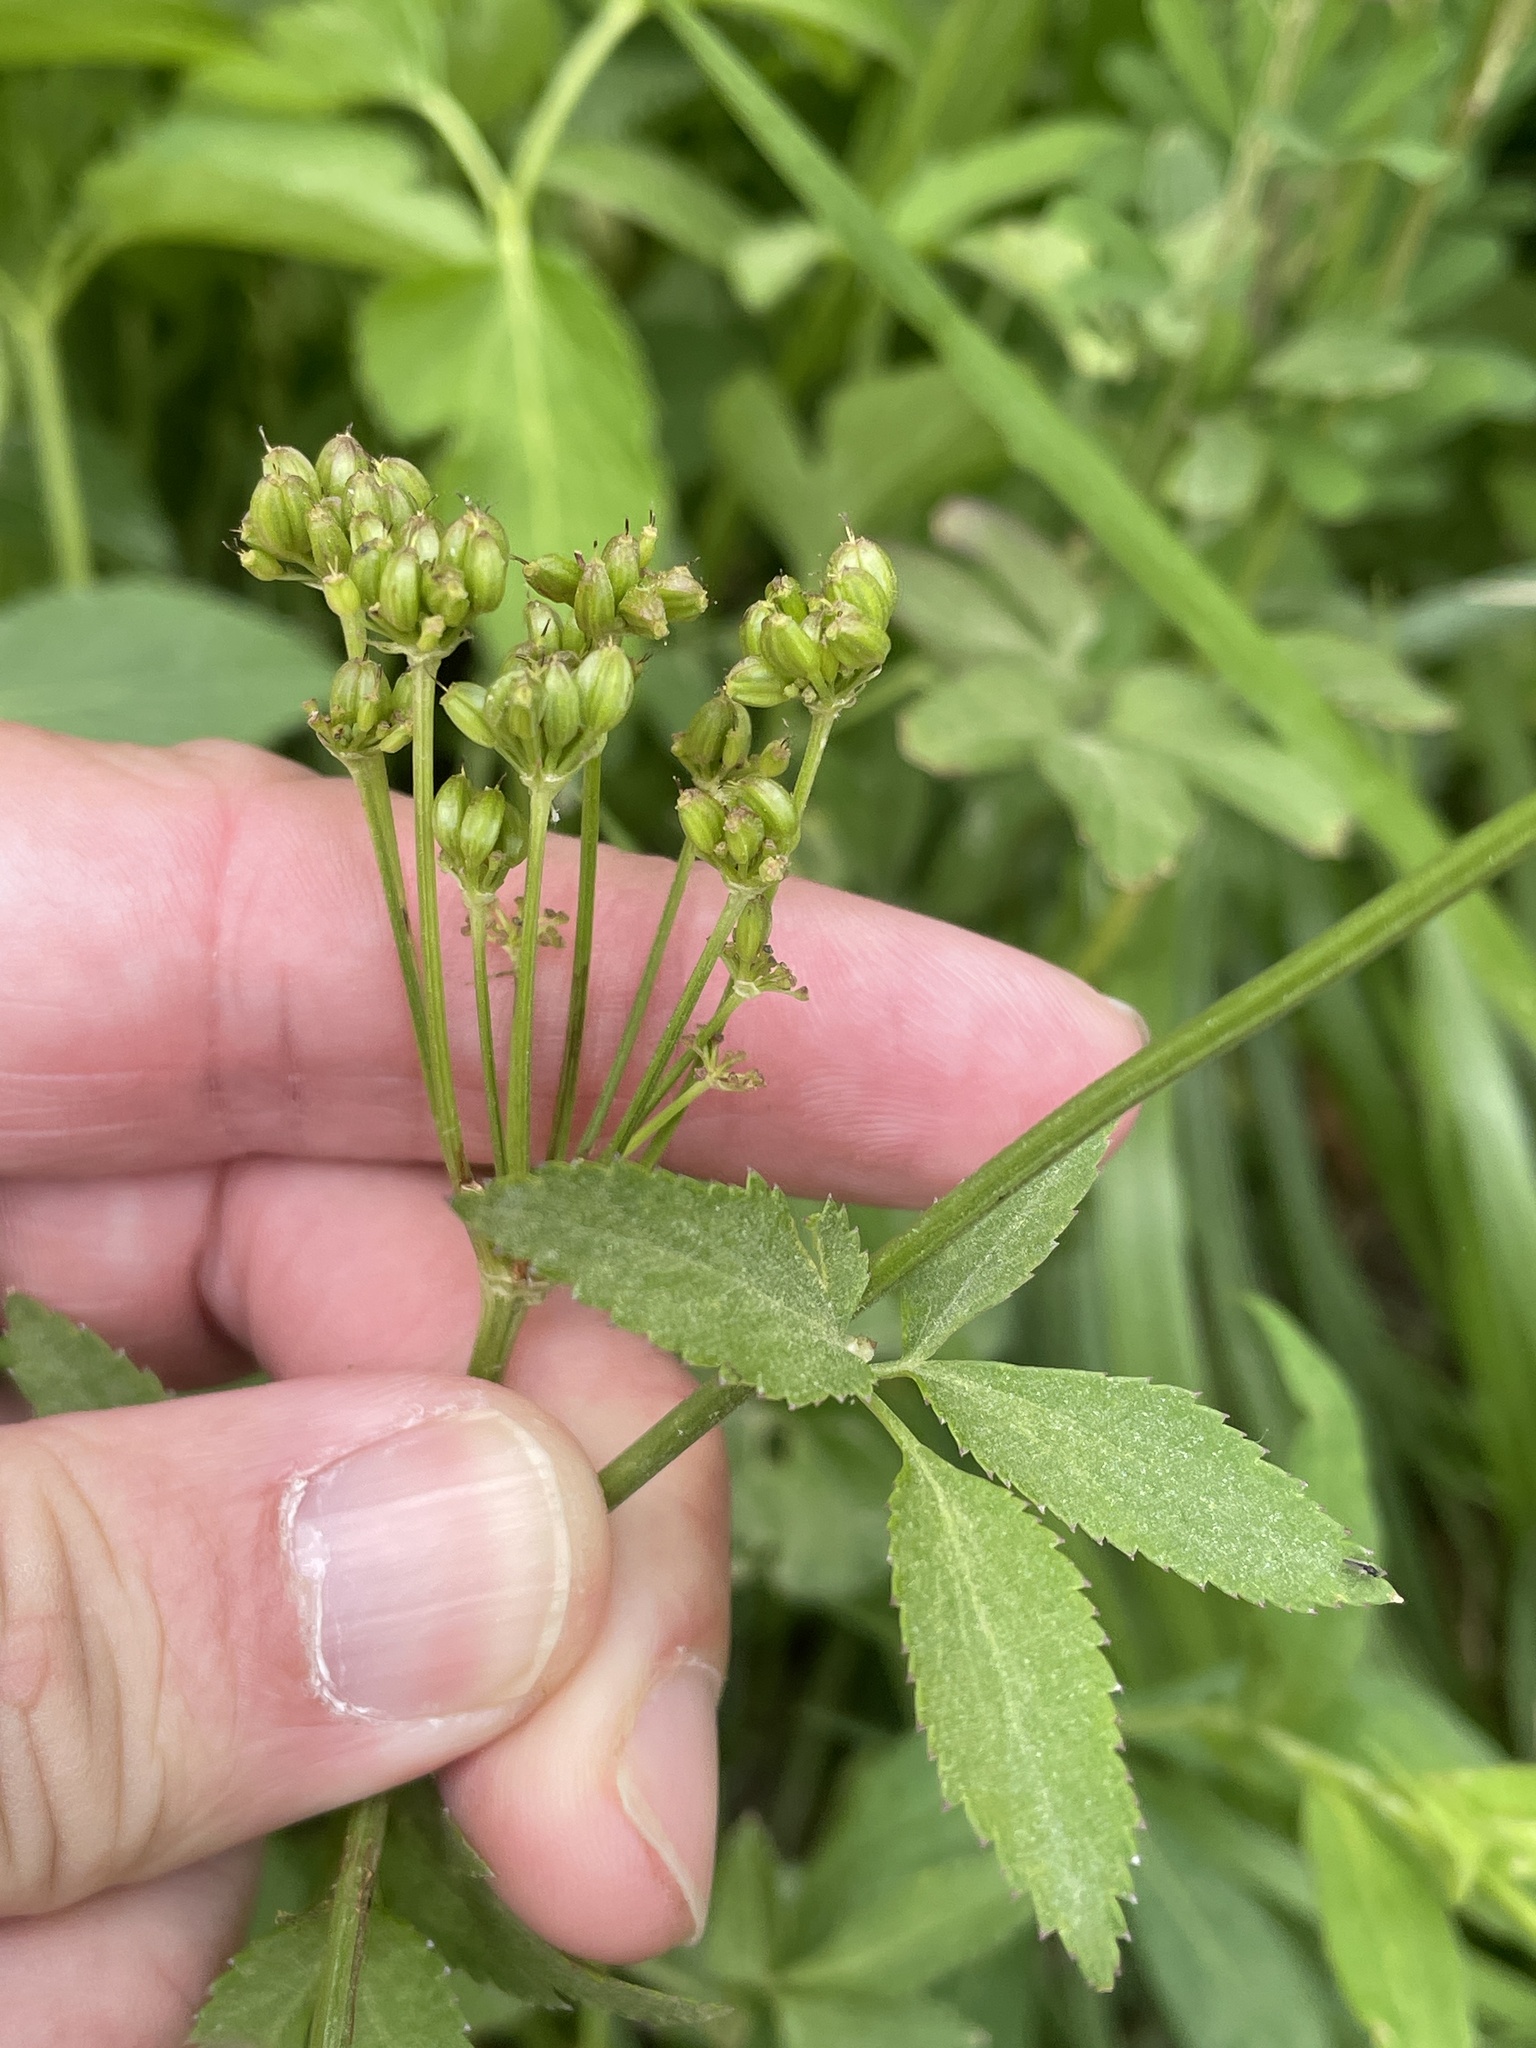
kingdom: Plantae
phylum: Tracheophyta
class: Magnoliopsida
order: Apiales
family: Apiaceae
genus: Zizia
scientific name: Zizia aurea
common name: Golden alexanders
